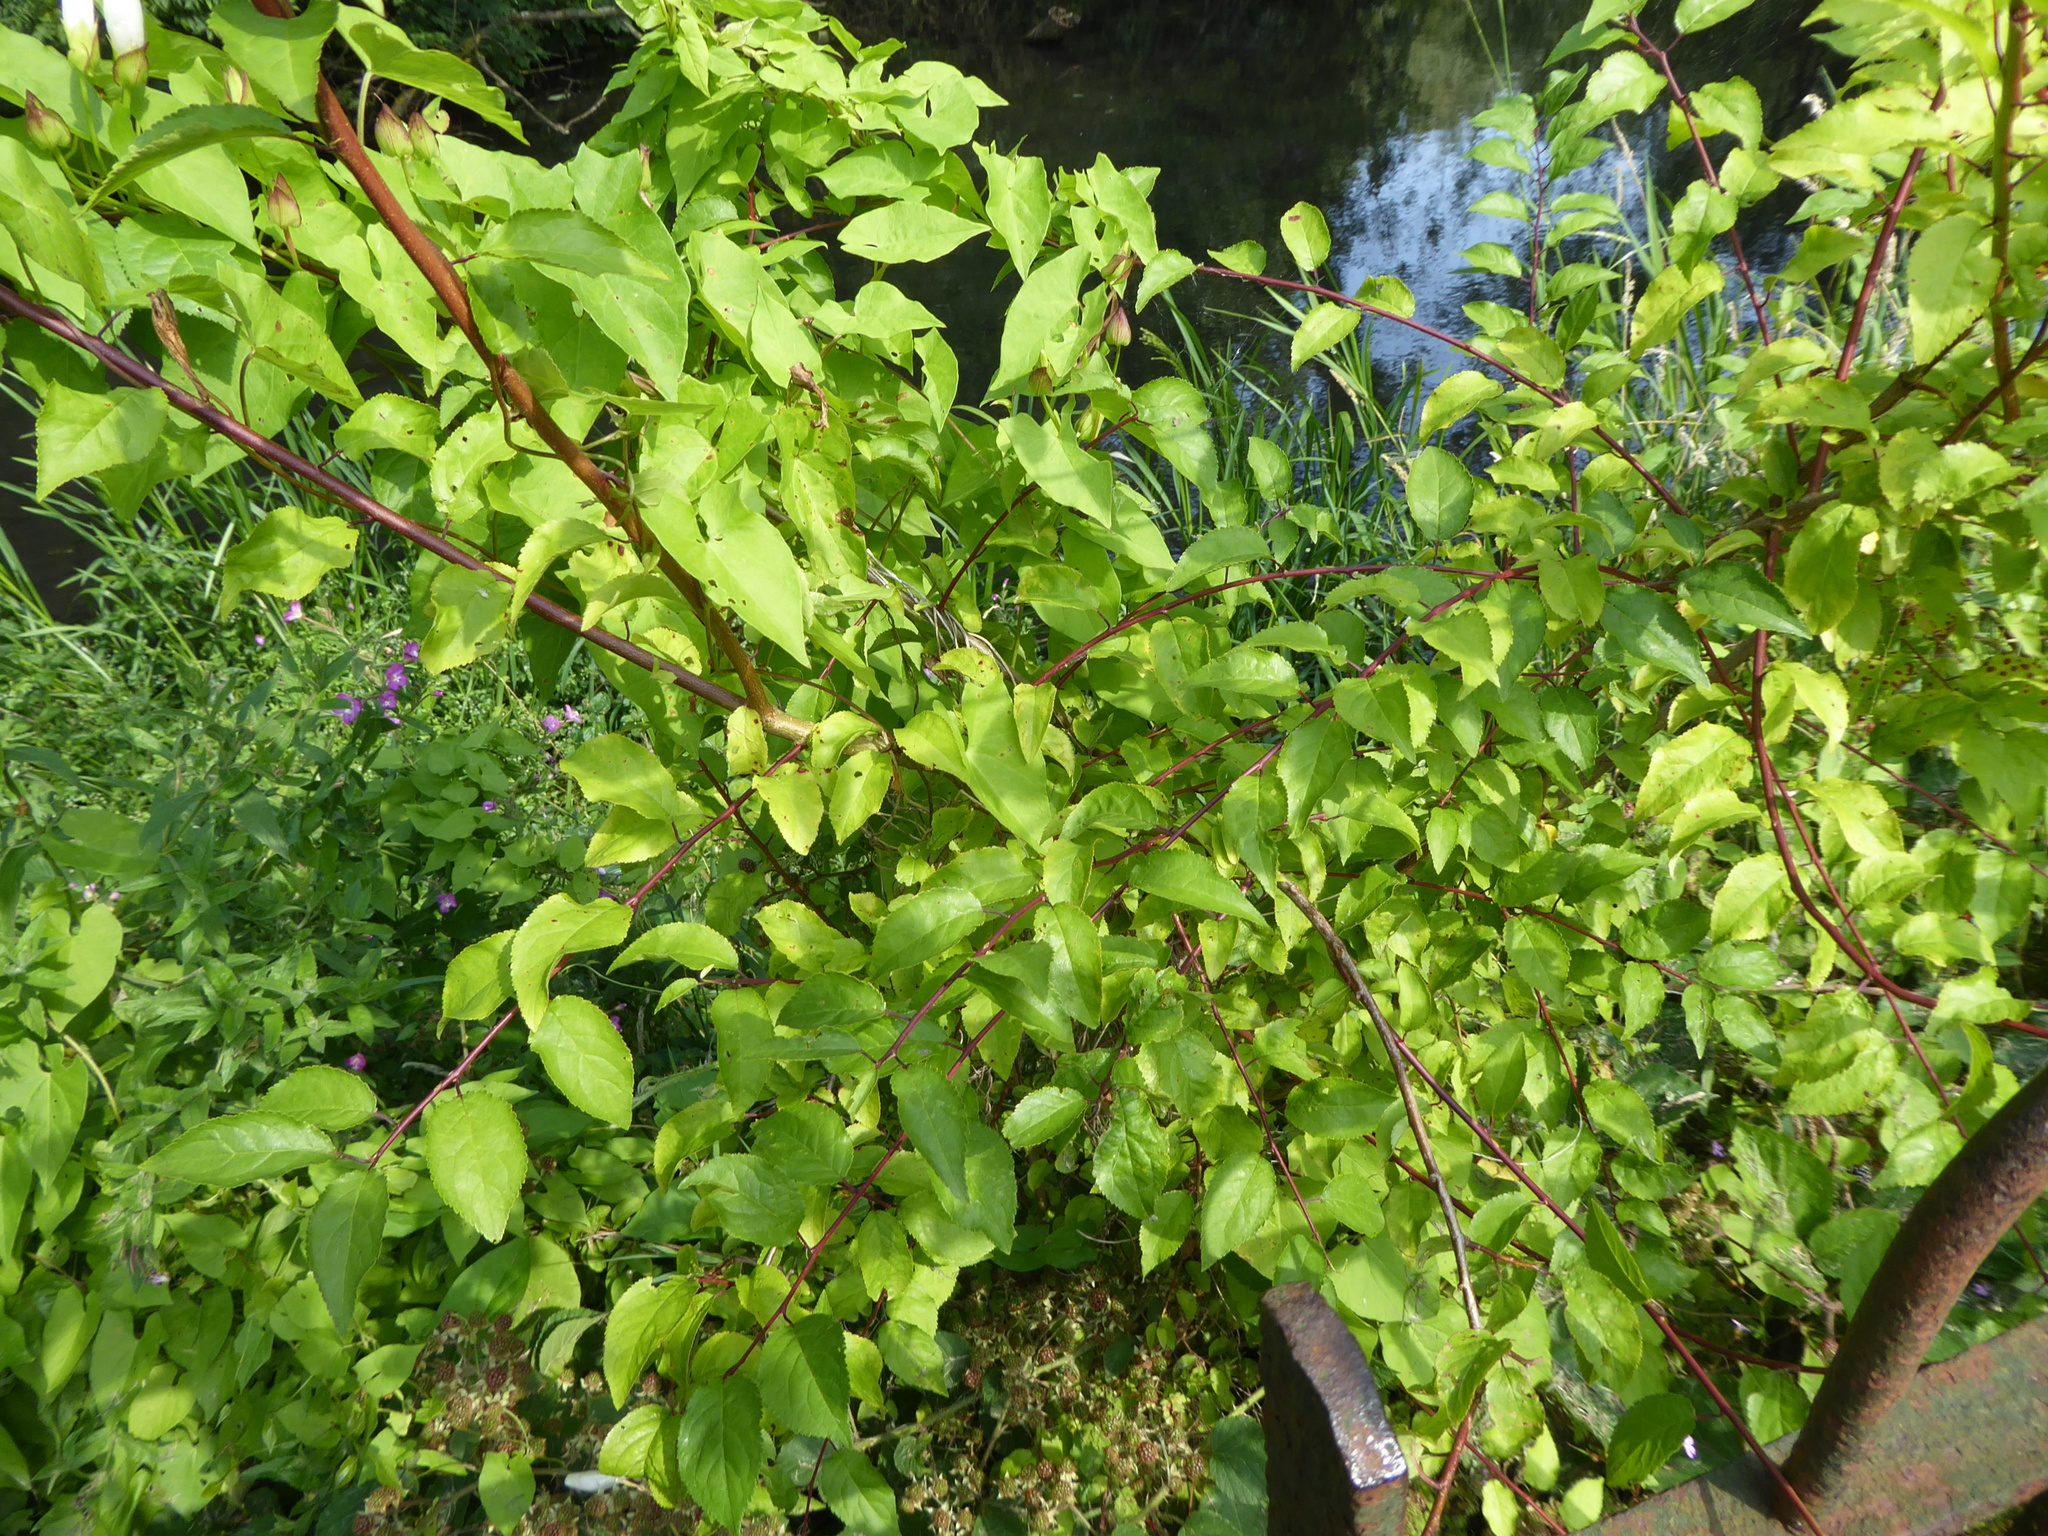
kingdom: Plantae
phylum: Tracheophyta
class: Magnoliopsida
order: Rosales
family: Rosaceae
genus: Prunus
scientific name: Prunus cerasifera
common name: Cherry plum
